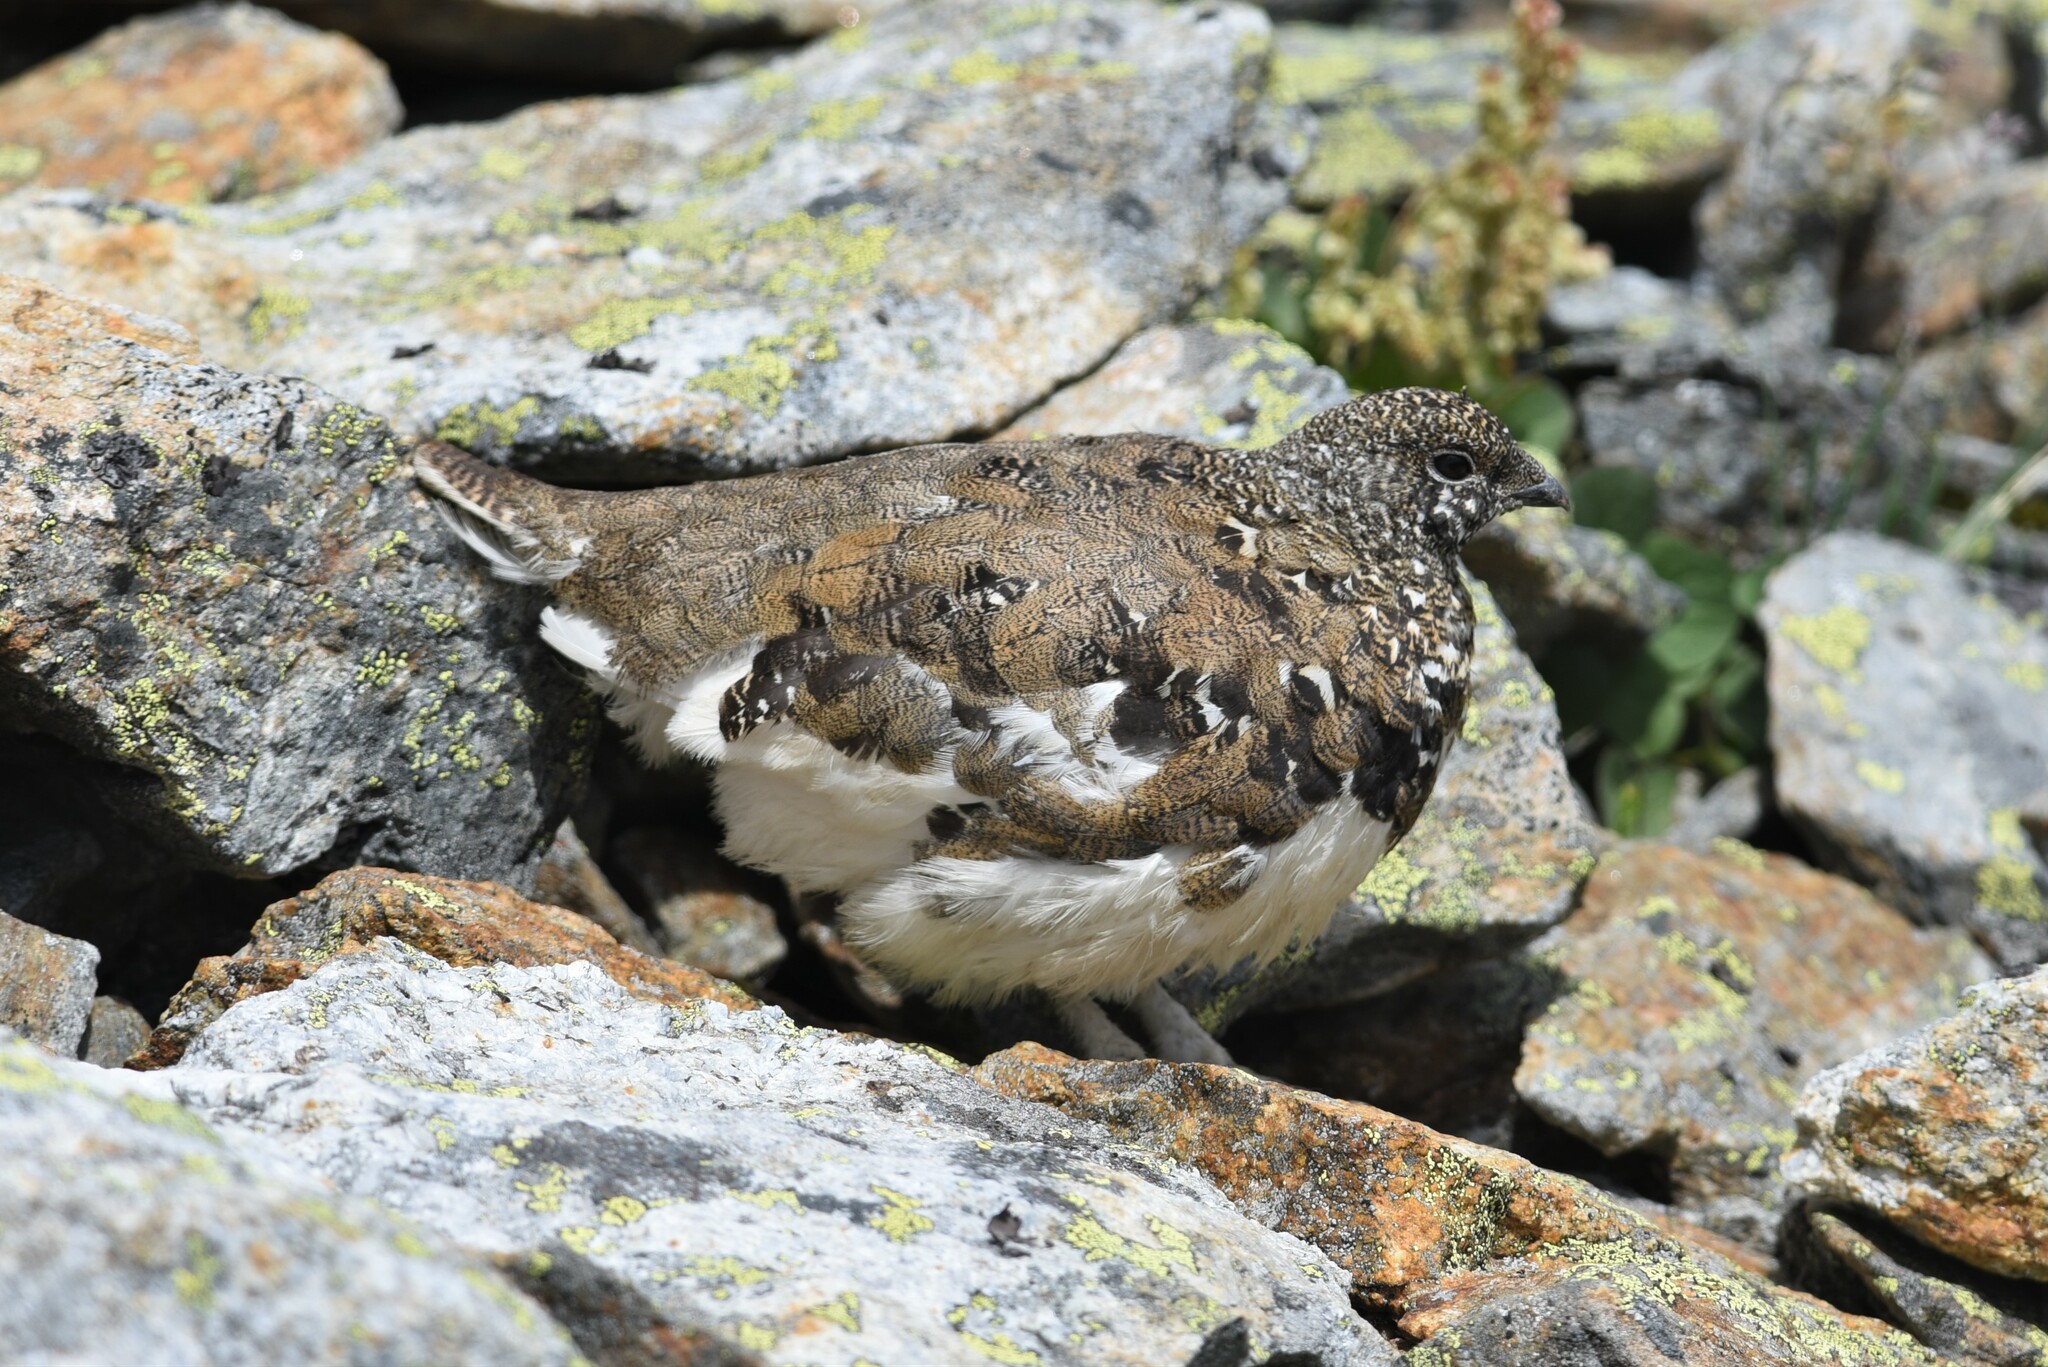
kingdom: Animalia
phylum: Chordata
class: Aves
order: Galliformes
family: Phasianidae
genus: Lagopus
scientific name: Lagopus leucura
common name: White-tailed ptarmigan
